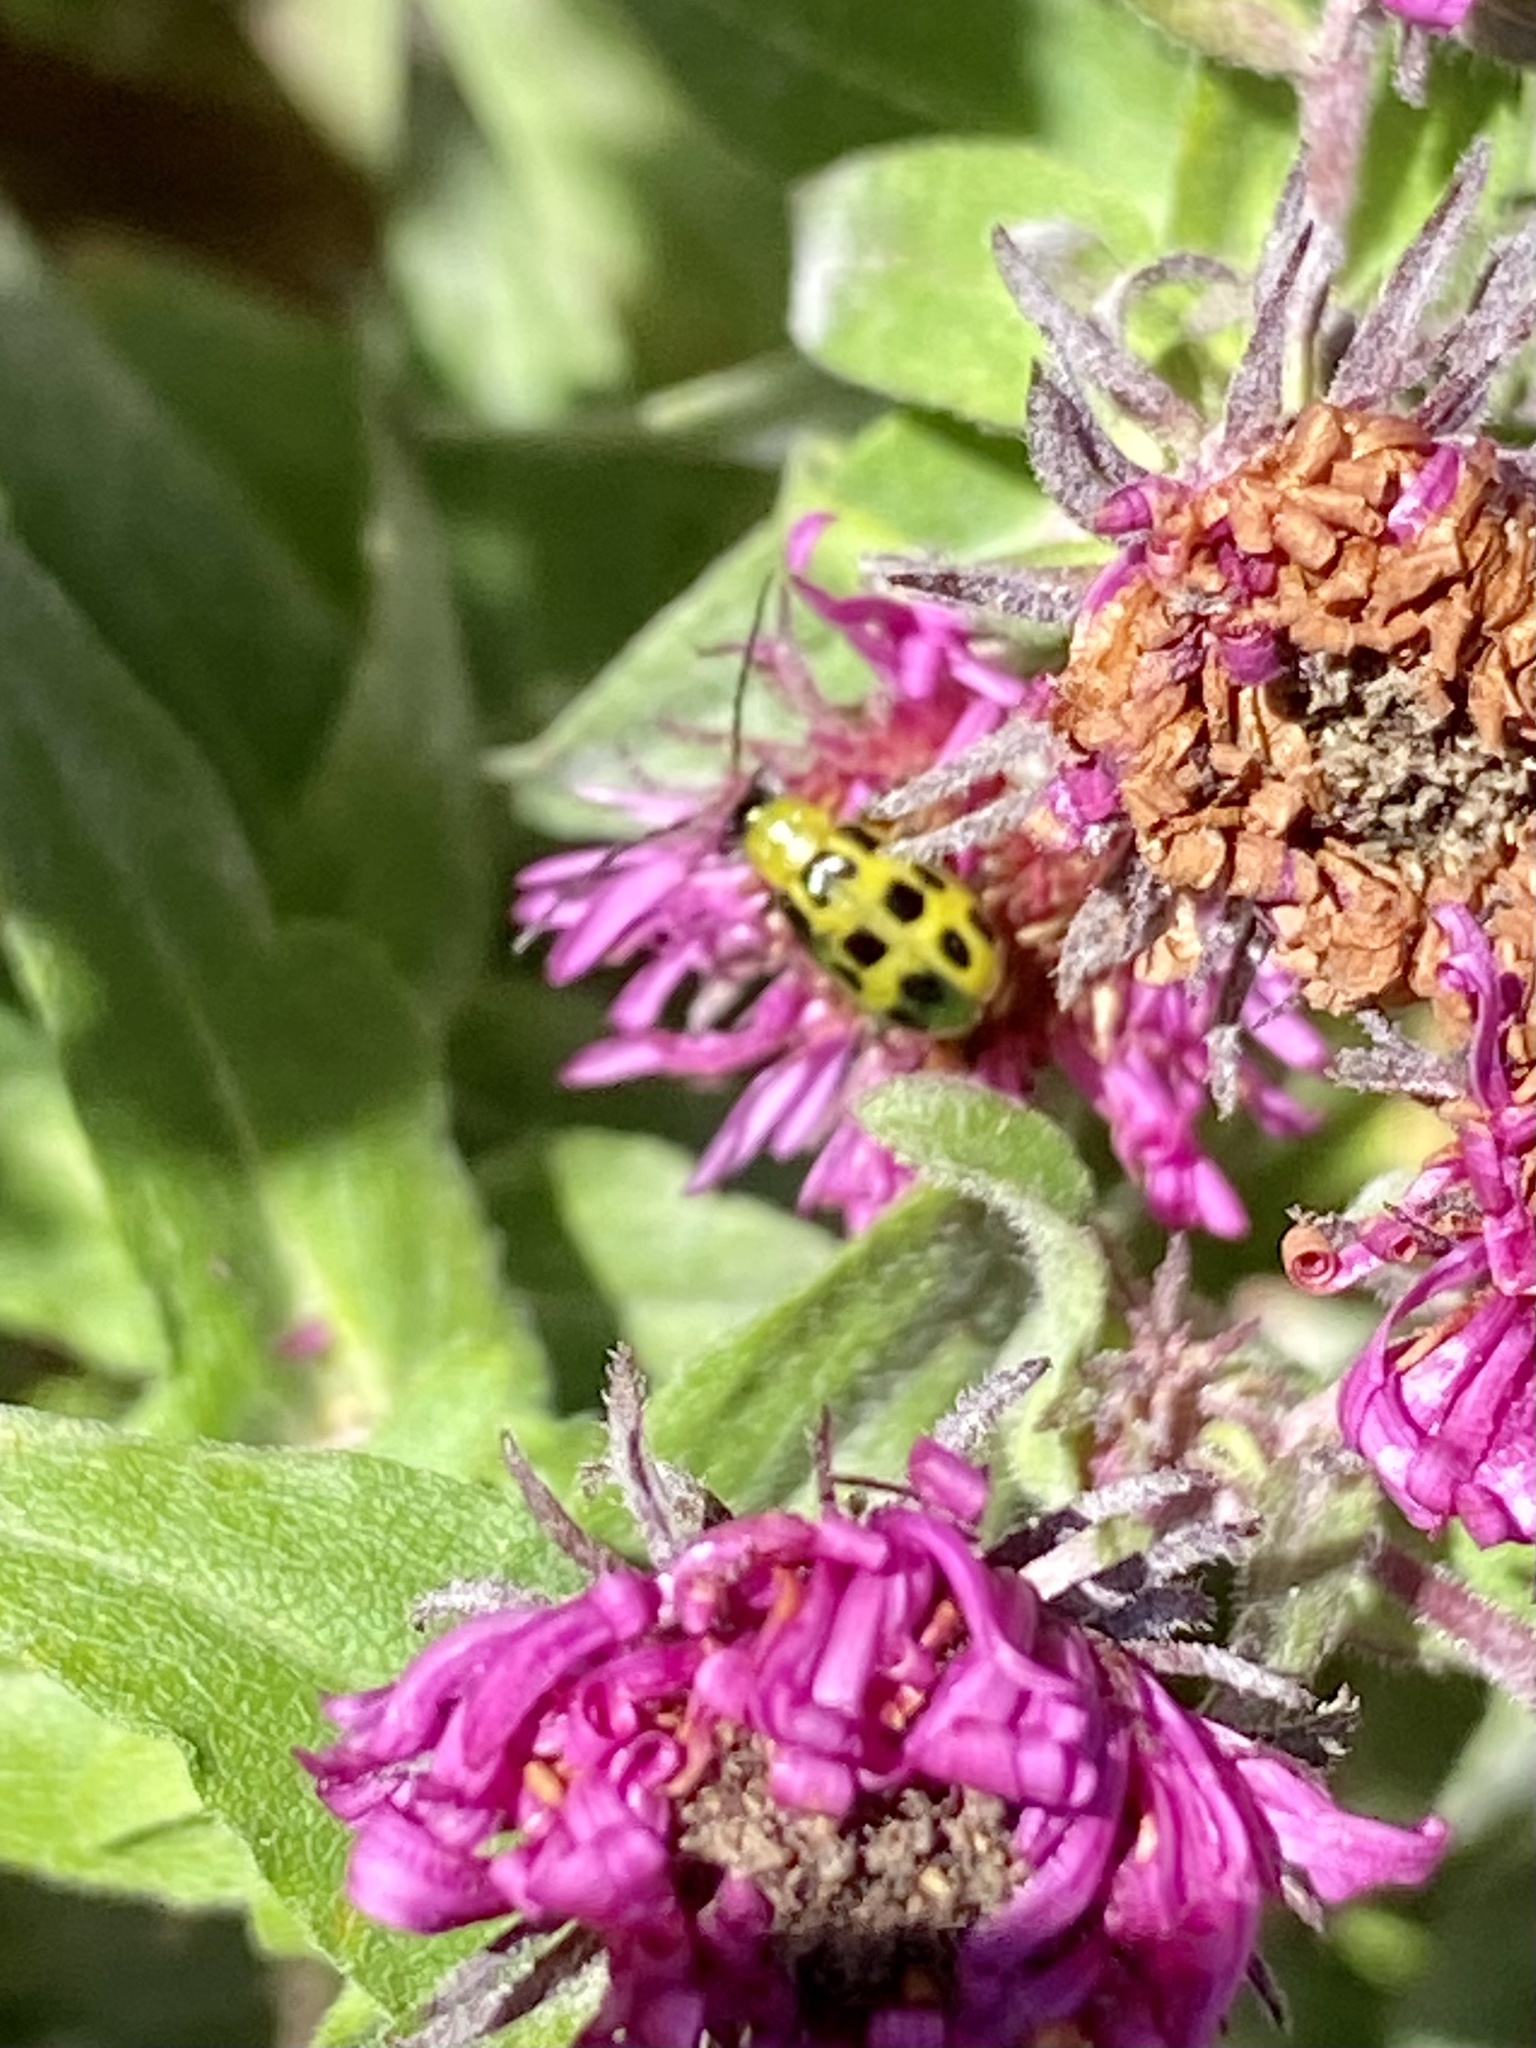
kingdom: Animalia
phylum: Arthropoda
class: Insecta
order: Coleoptera
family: Chrysomelidae
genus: Diabrotica
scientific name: Diabrotica undecimpunctata
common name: Spotted cucumber beetle
